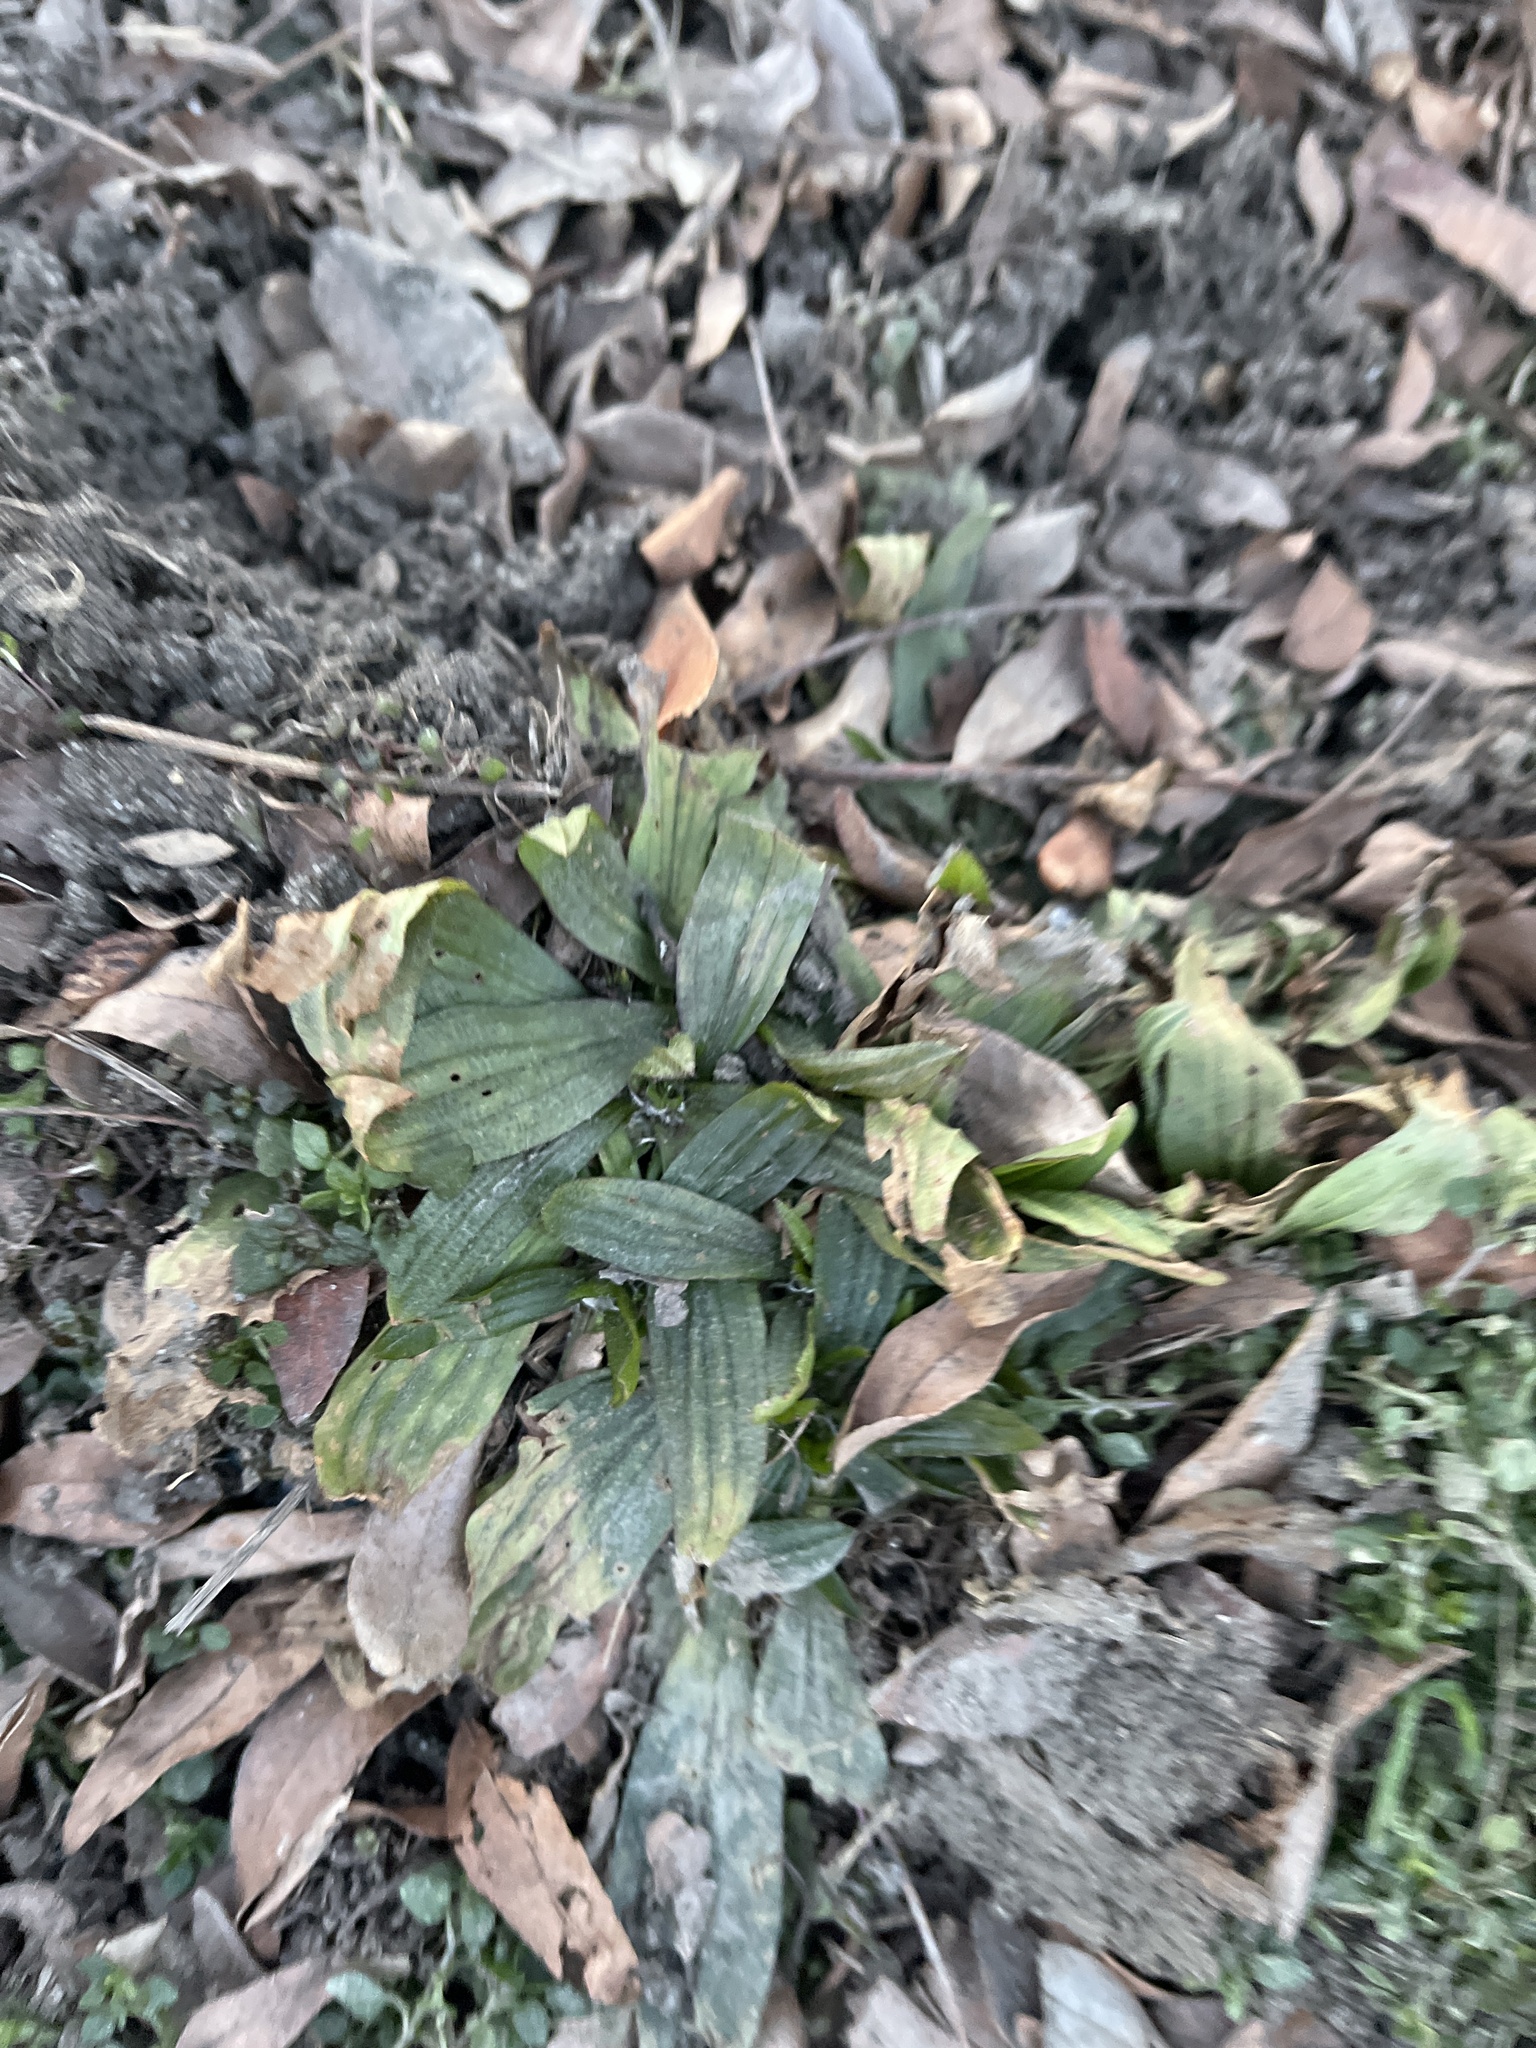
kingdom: Plantae
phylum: Tracheophyta
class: Magnoliopsida
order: Lamiales
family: Plantaginaceae
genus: Plantago
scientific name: Plantago lanceolata
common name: Ribwort plantain
